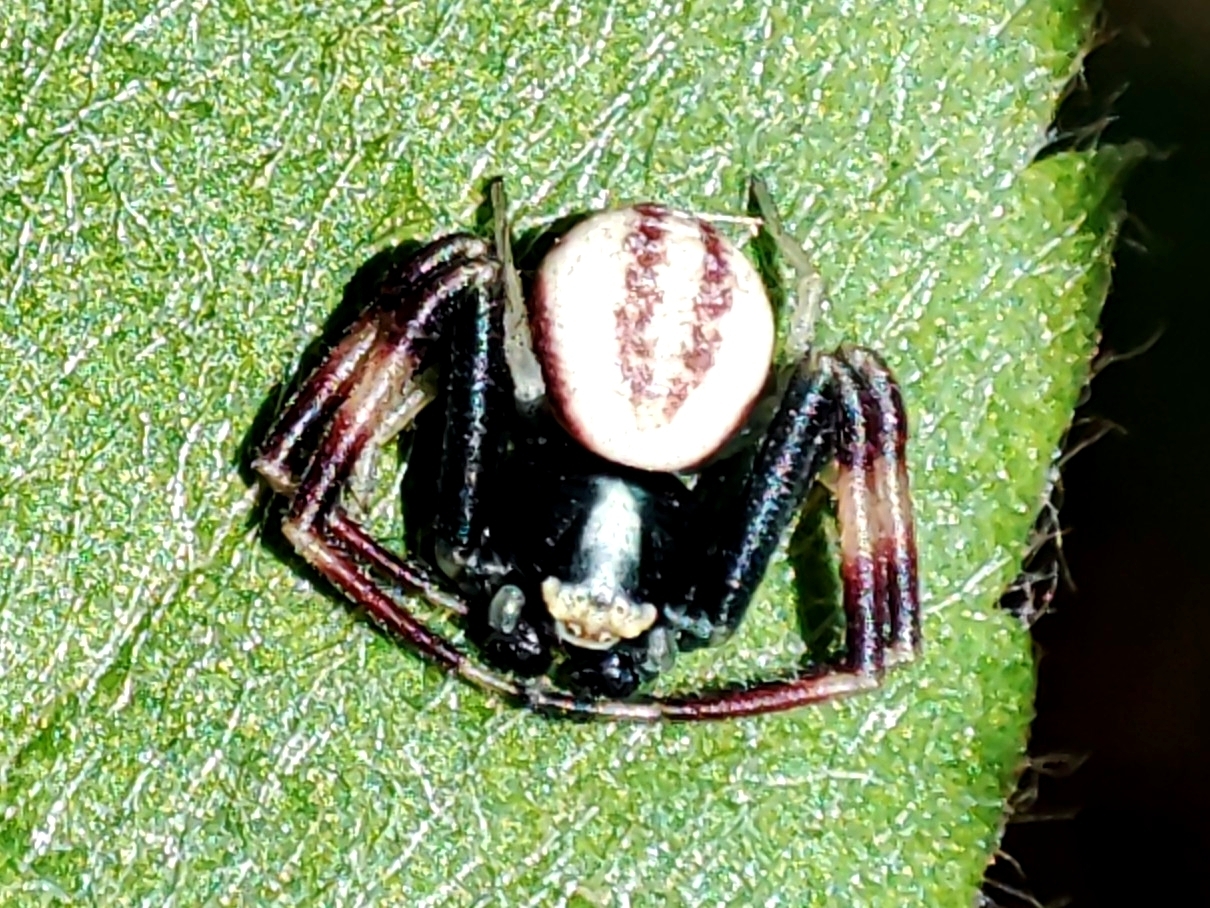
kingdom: Animalia
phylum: Arthropoda
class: Arachnida
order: Araneae
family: Thomisidae
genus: Misumena
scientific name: Misumena vatia
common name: Goldenrod crab spider
